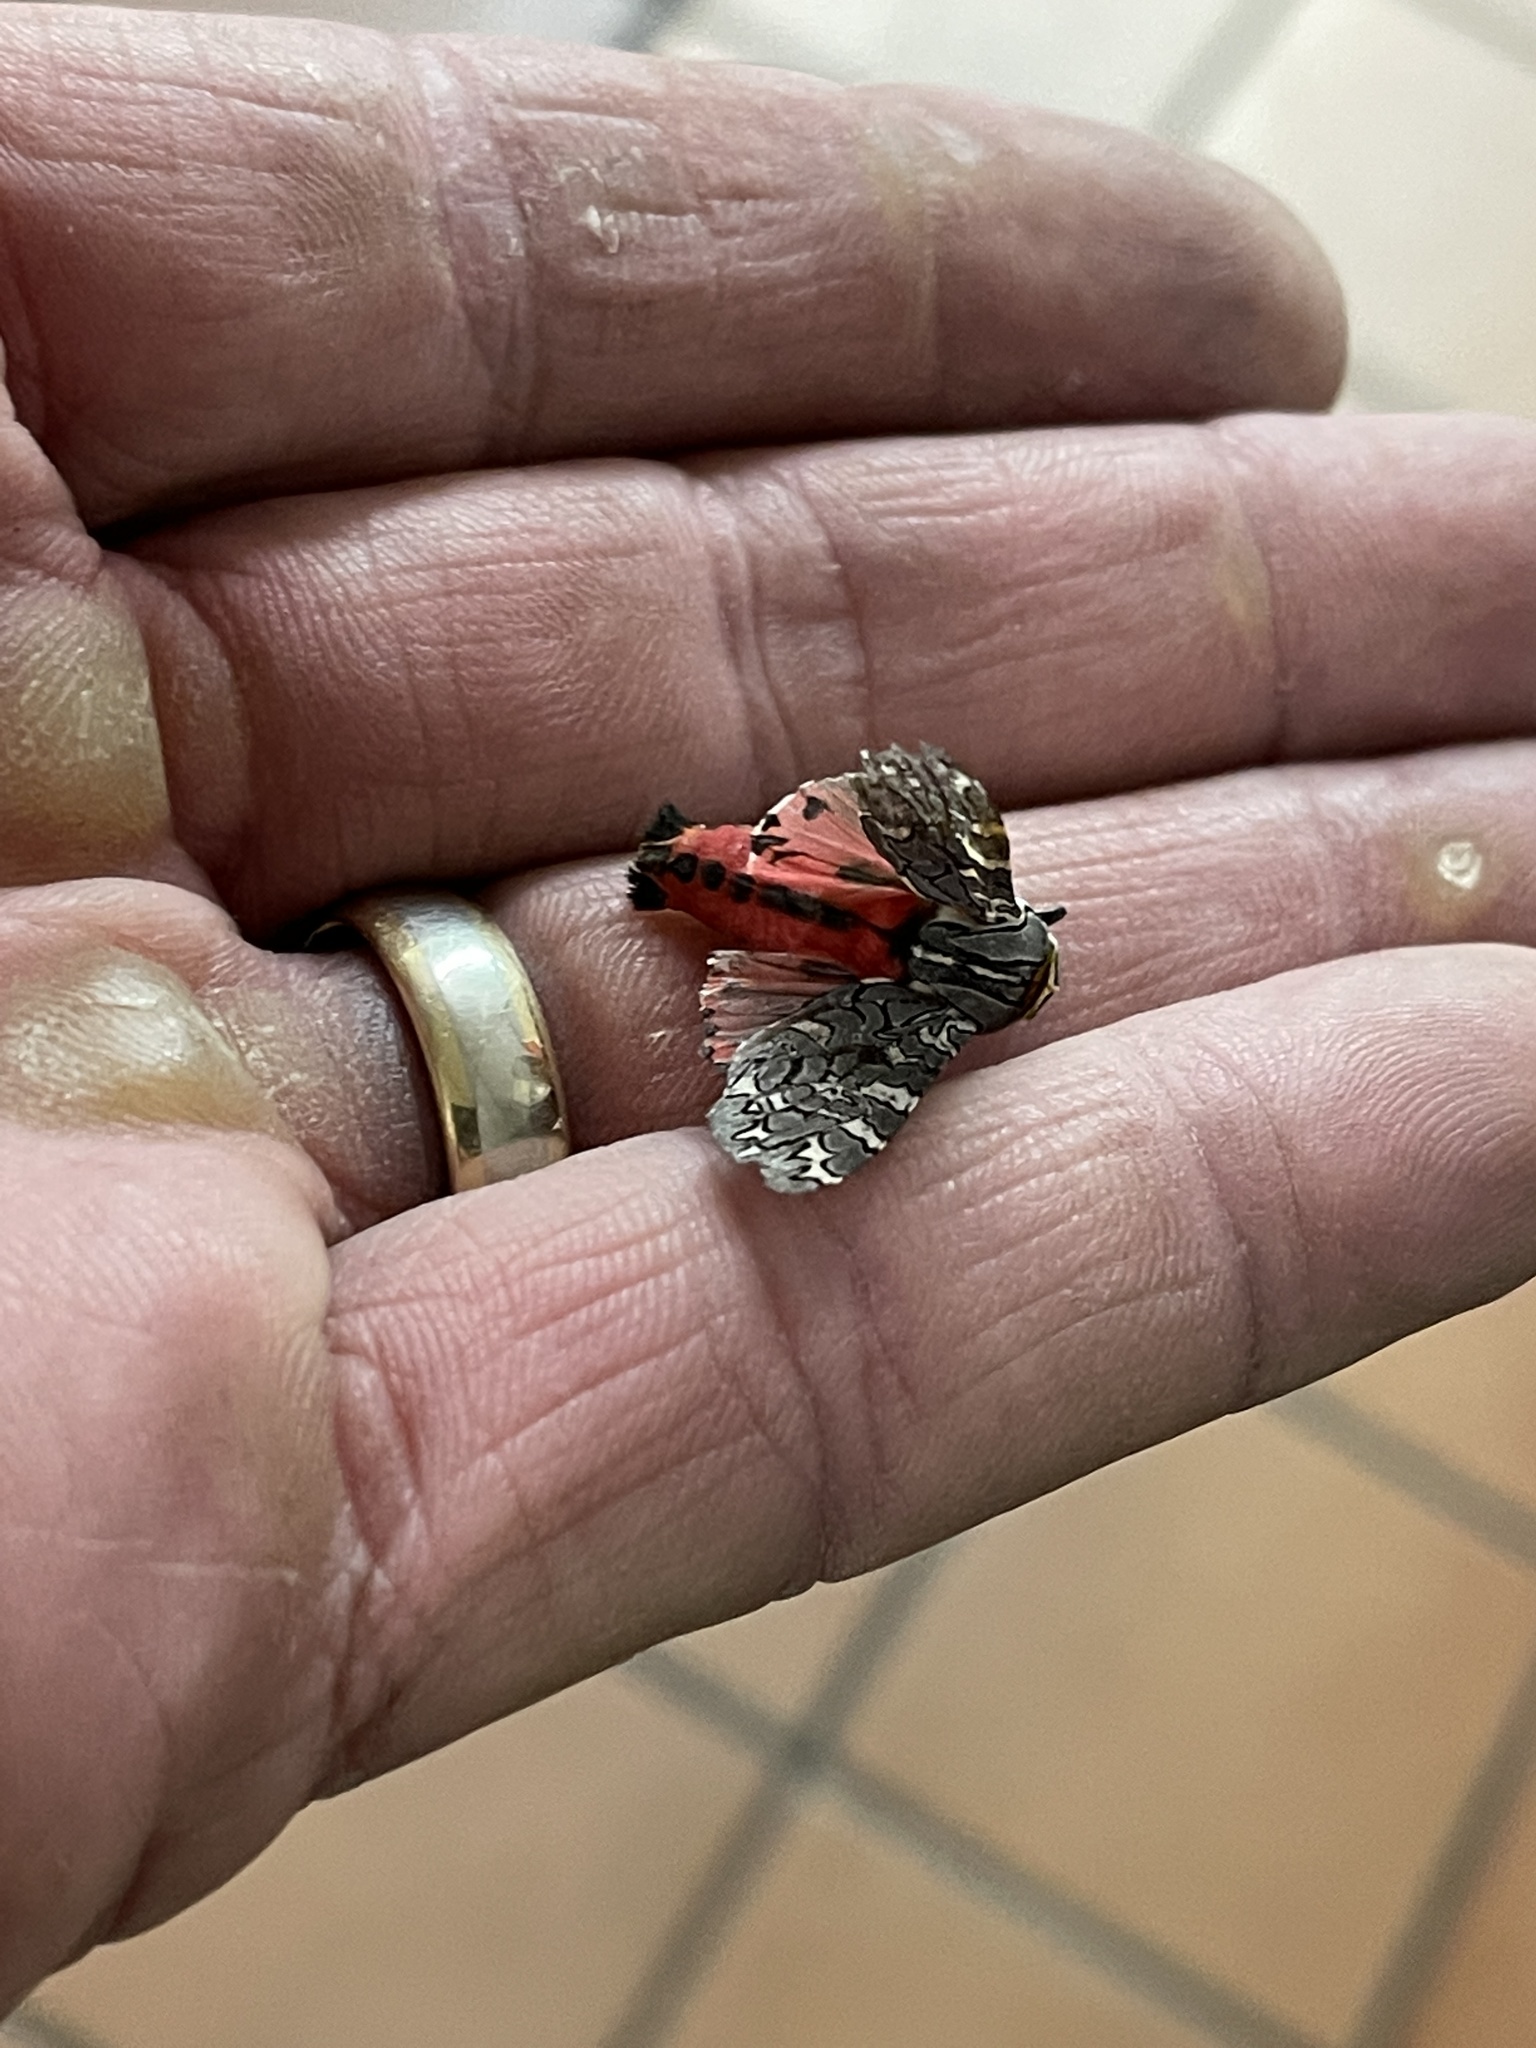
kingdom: Animalia
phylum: Arthropoda
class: Insecta
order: Lepidoptera
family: Erebidae
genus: Arachnis
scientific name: Arachnis picta
